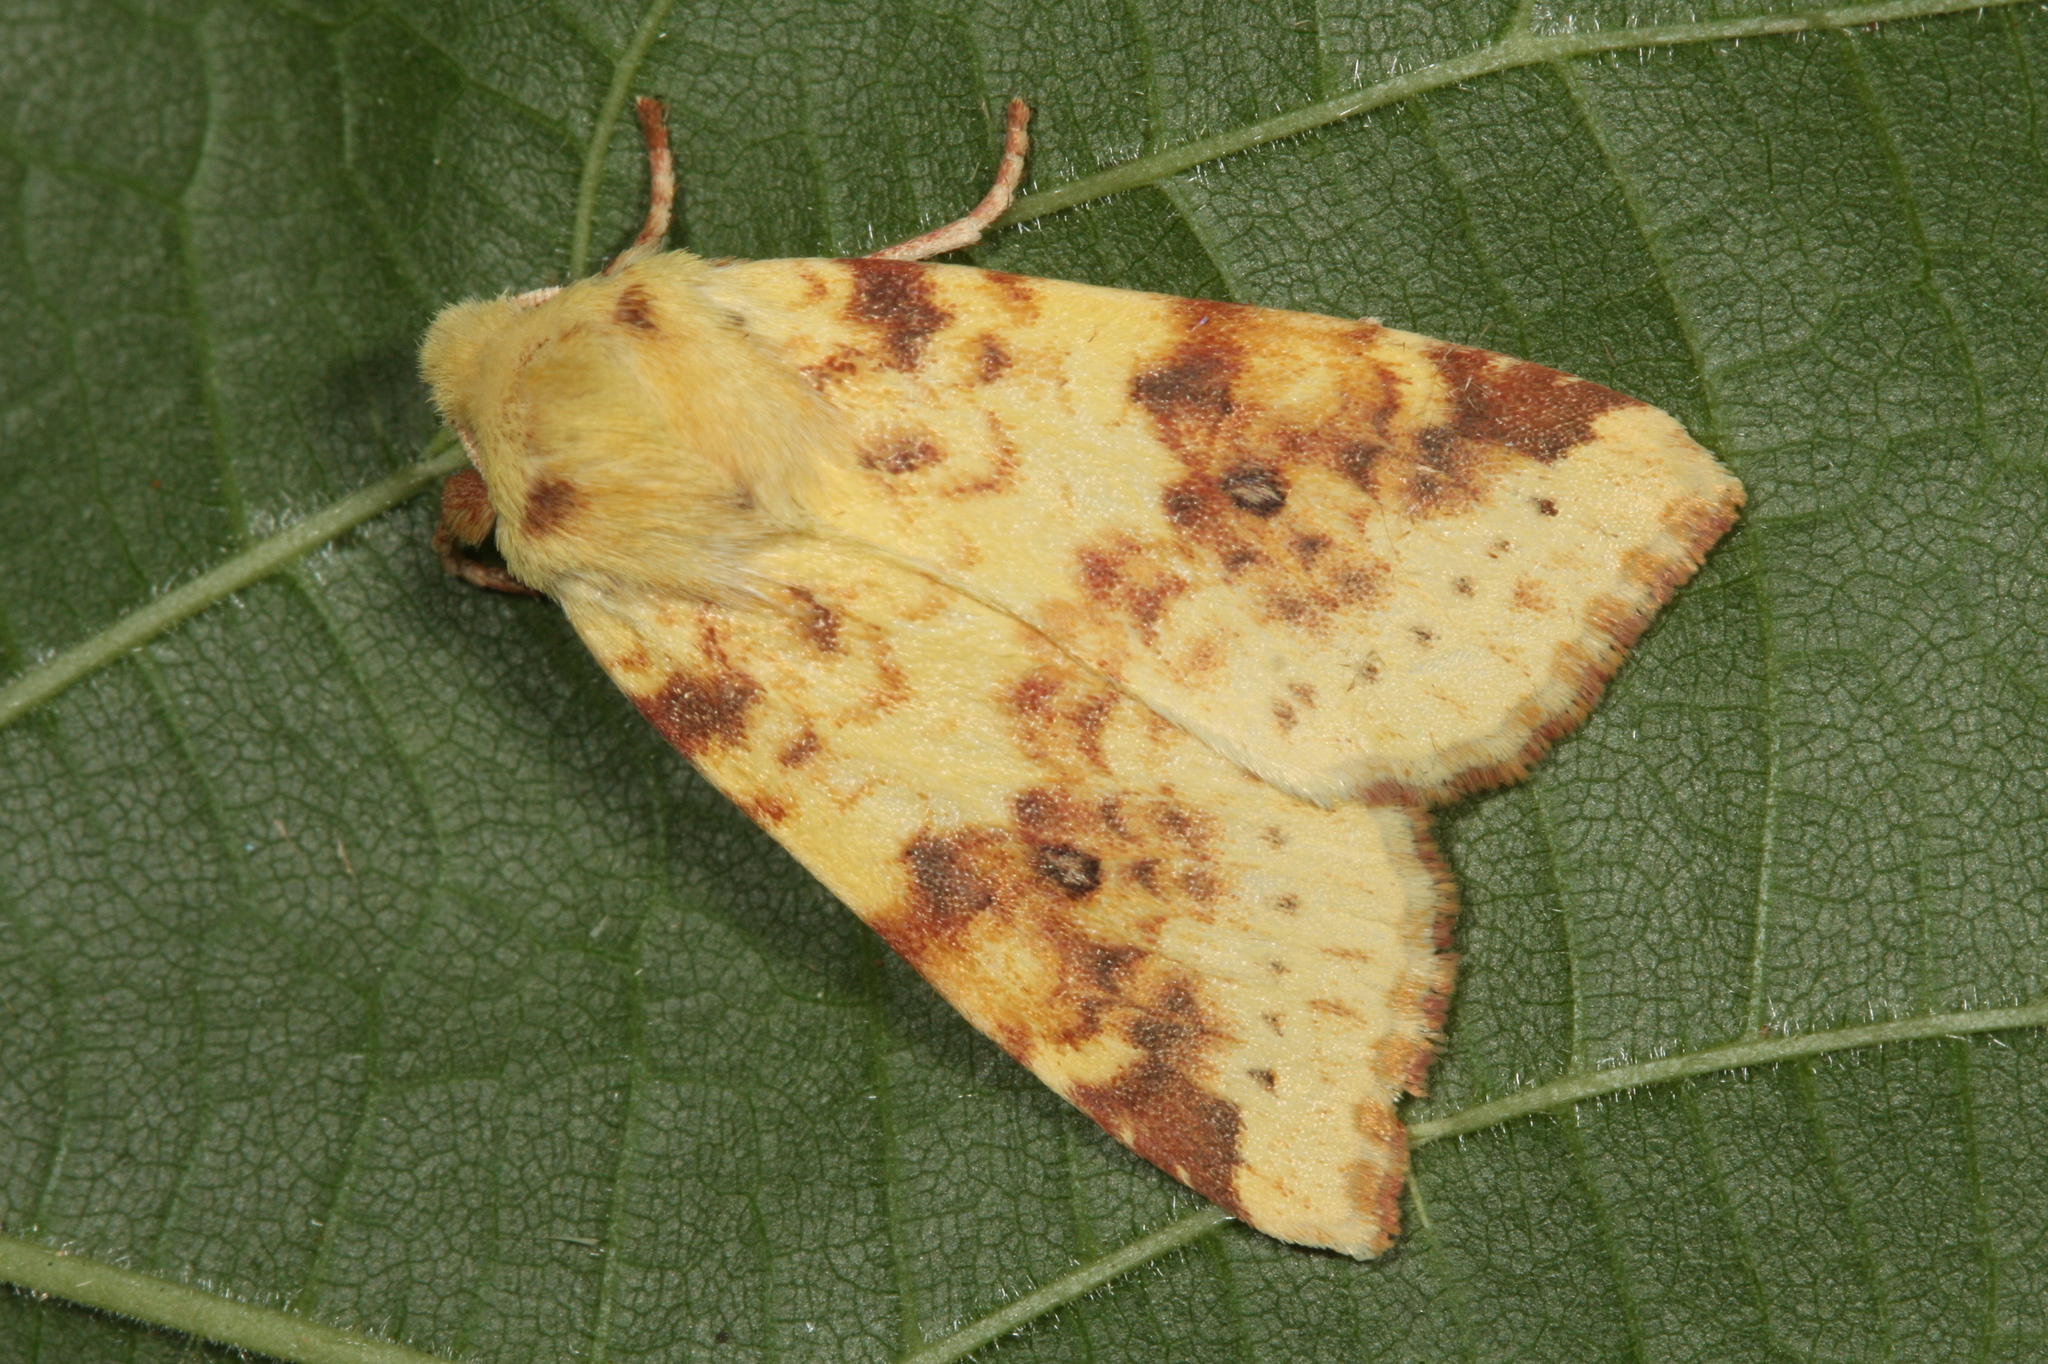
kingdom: Animalia
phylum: Arthropoda
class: Insecta
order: Lepidoptera
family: Noctuidae
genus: Xanthia
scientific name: Xanthia icteritia
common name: The sallow
